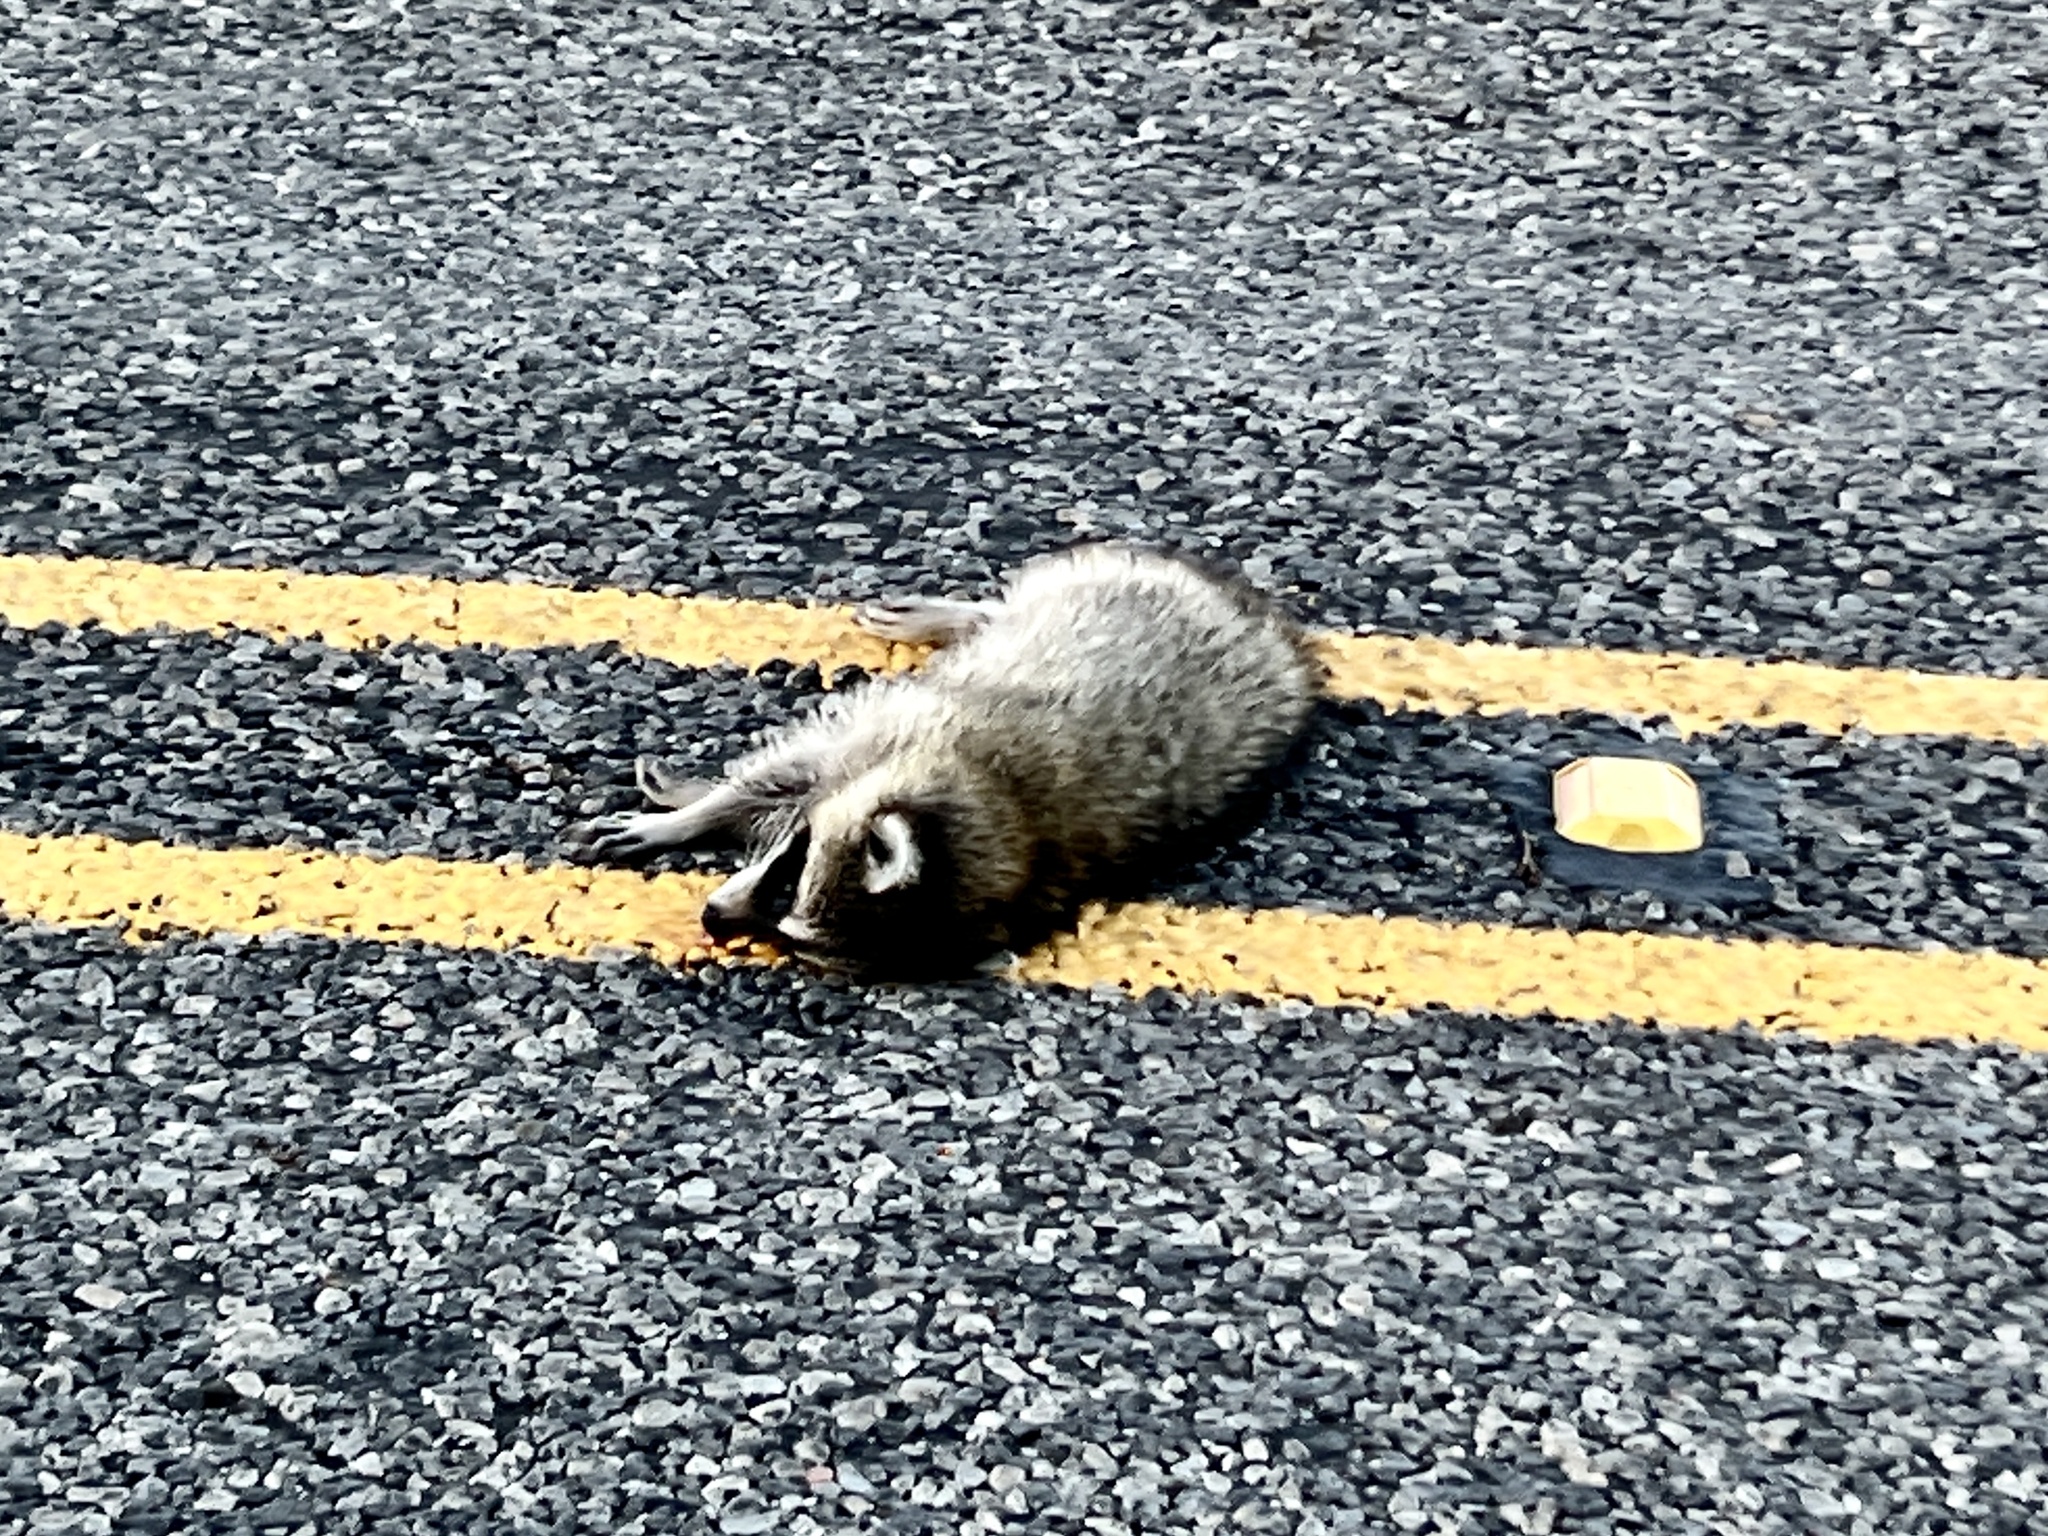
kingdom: Animalia
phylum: Chordata
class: Mammalia
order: Carnivora
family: Procyonidae
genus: Procyon
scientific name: Procyon lotor
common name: Raccoon
